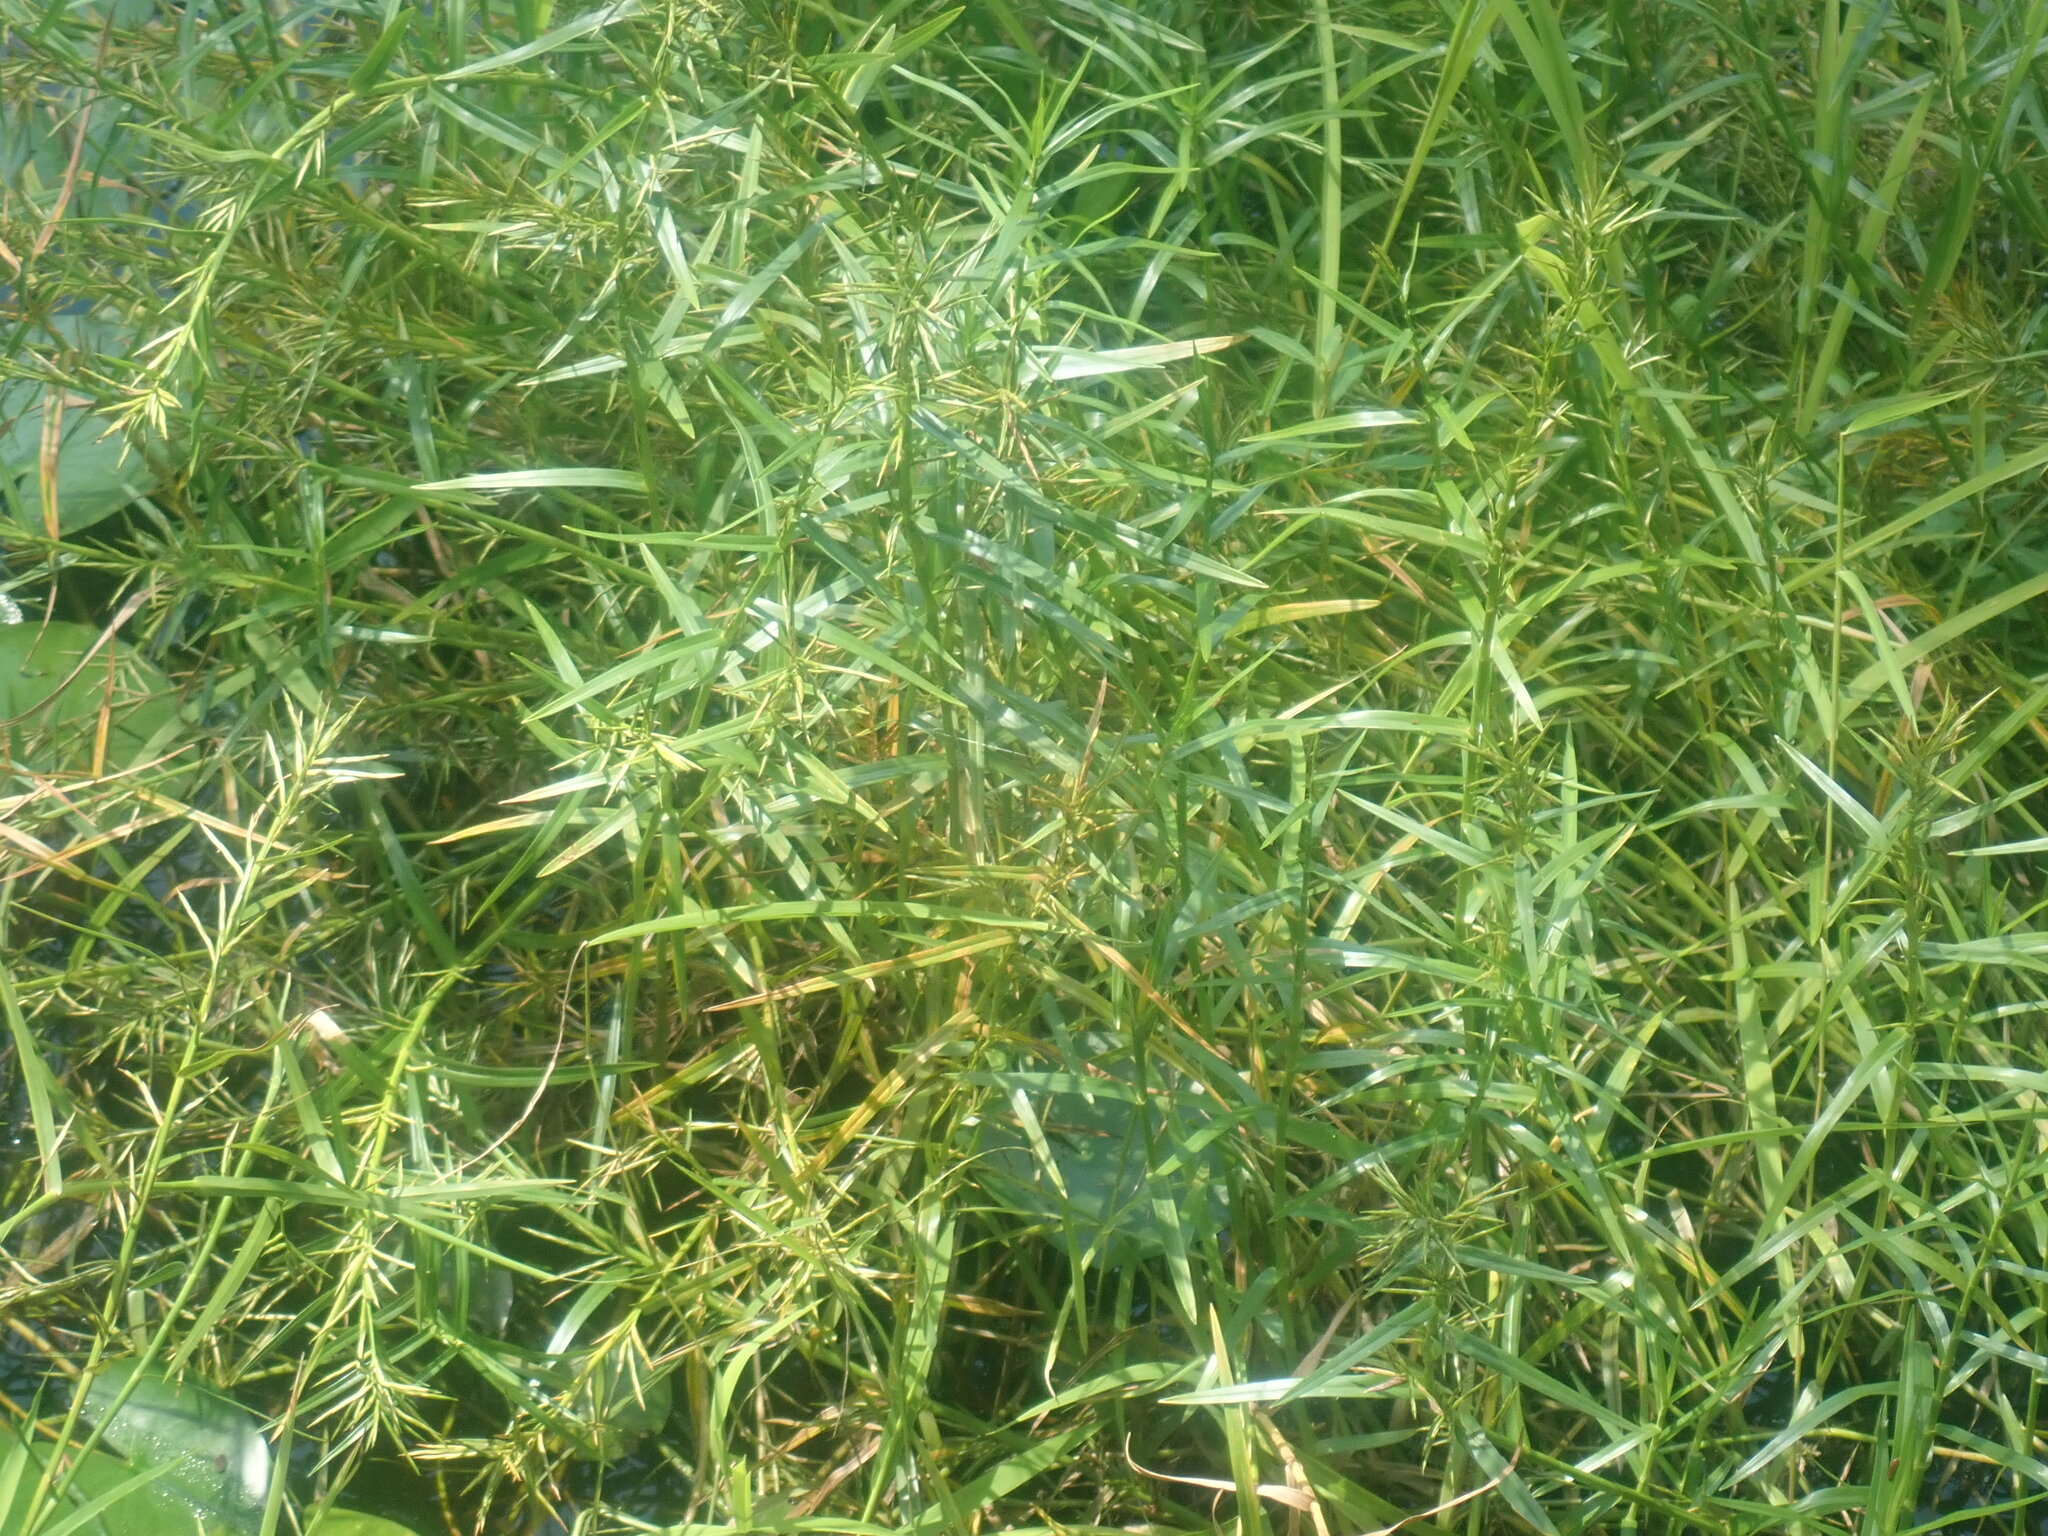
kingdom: Plantae
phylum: Tracheophyta
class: Liliopsida
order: Poales
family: Cyperaceae
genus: Dulichium
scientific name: Dulichium arundinaceum
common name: Three-way sedge
